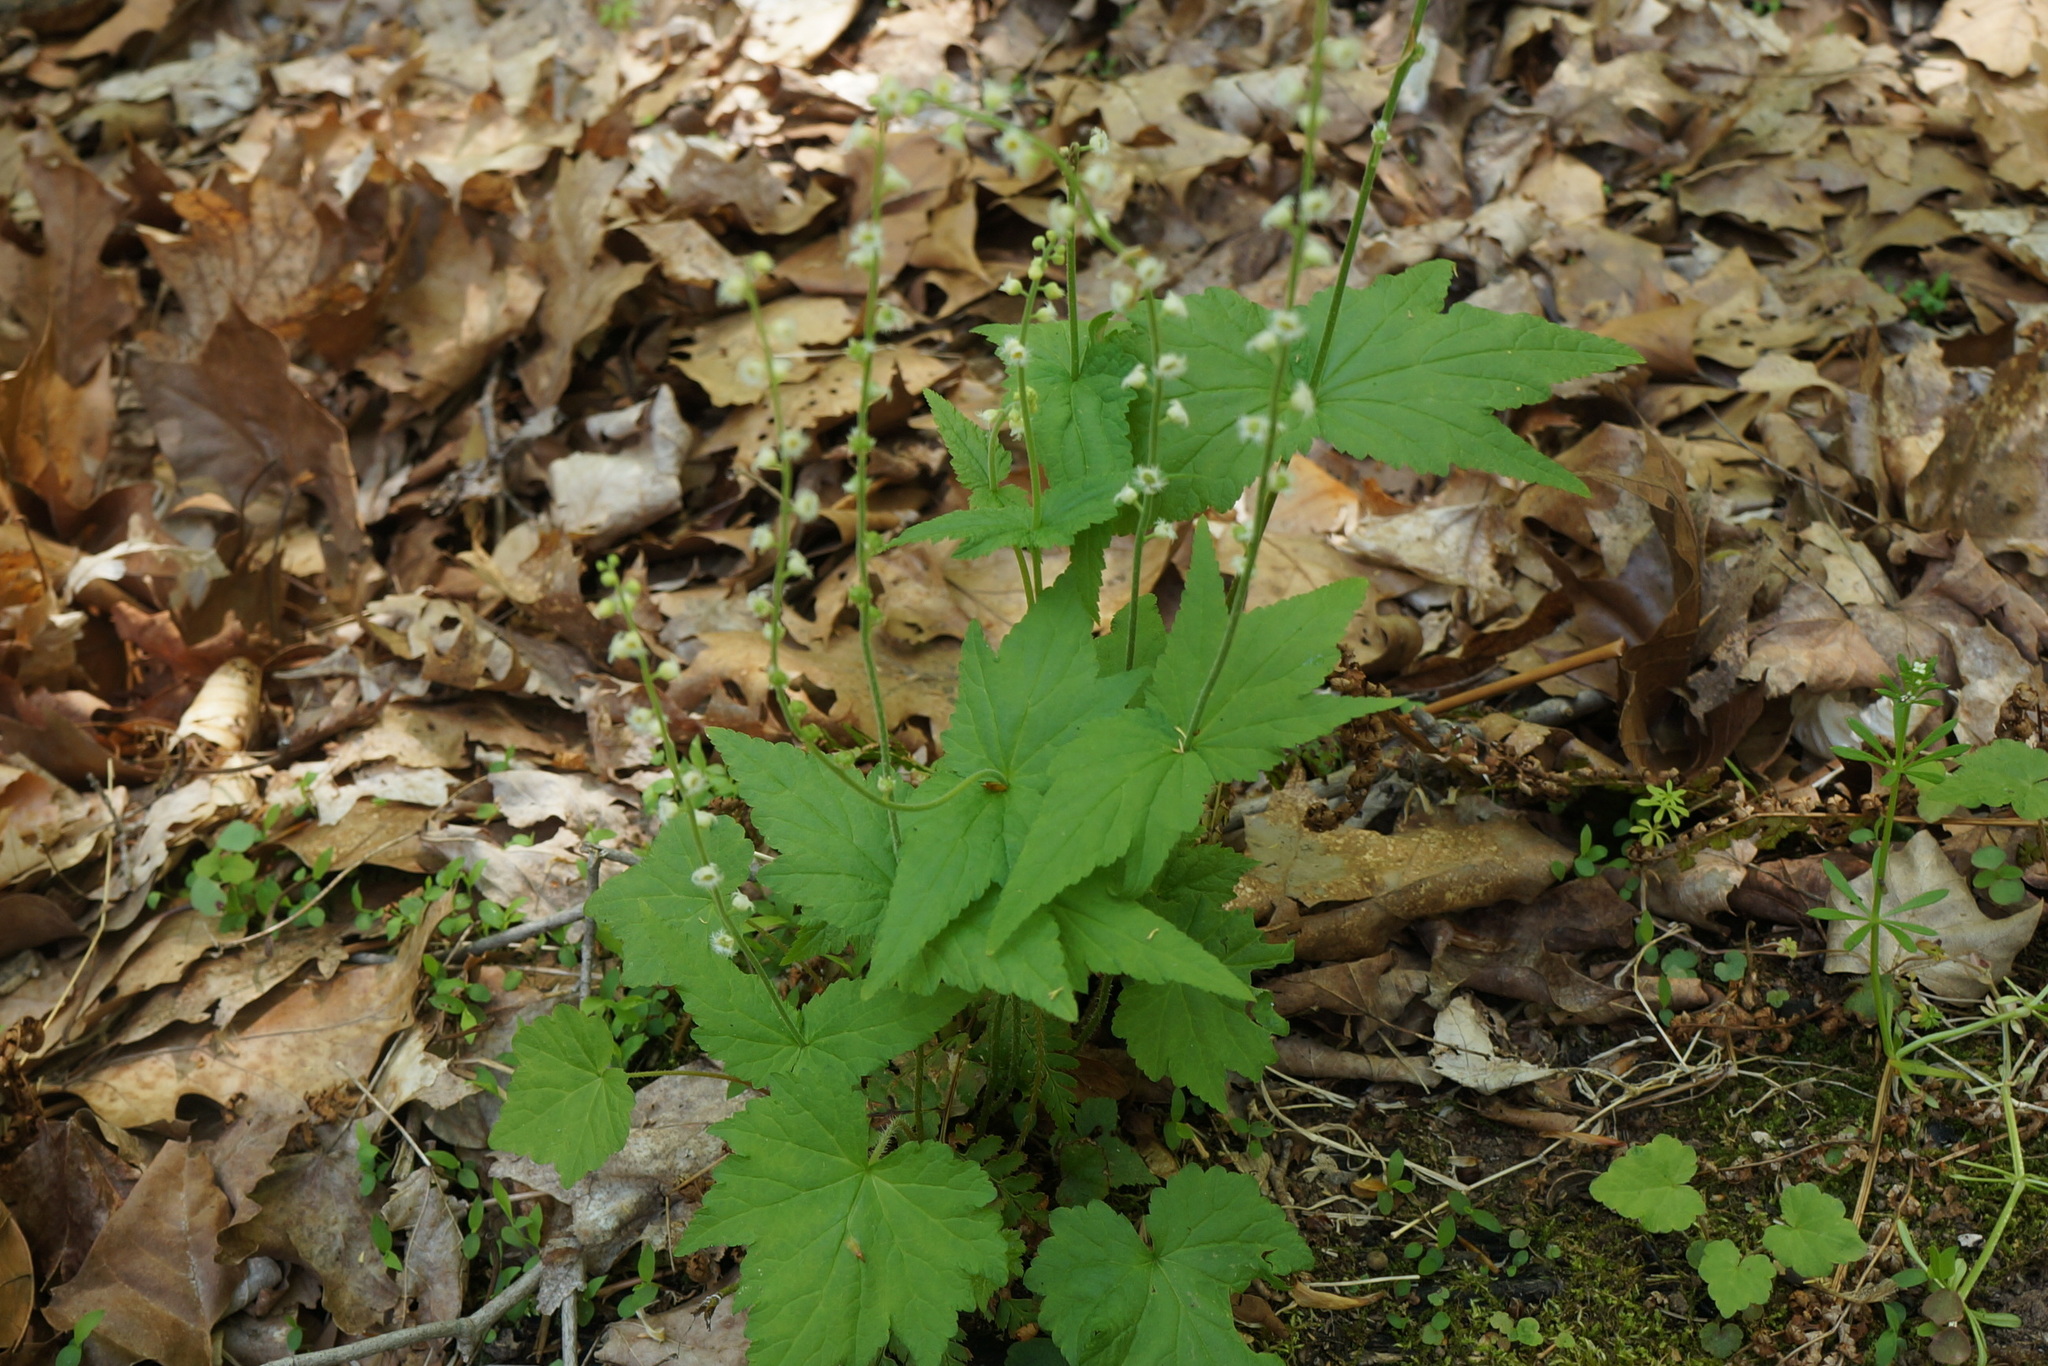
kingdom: Plantae
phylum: Tracheophyta
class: Magnoliopsida
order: Saxifragales
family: Saxifragaceae
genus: Mitella
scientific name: Mitella diphylla
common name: Coolwort
